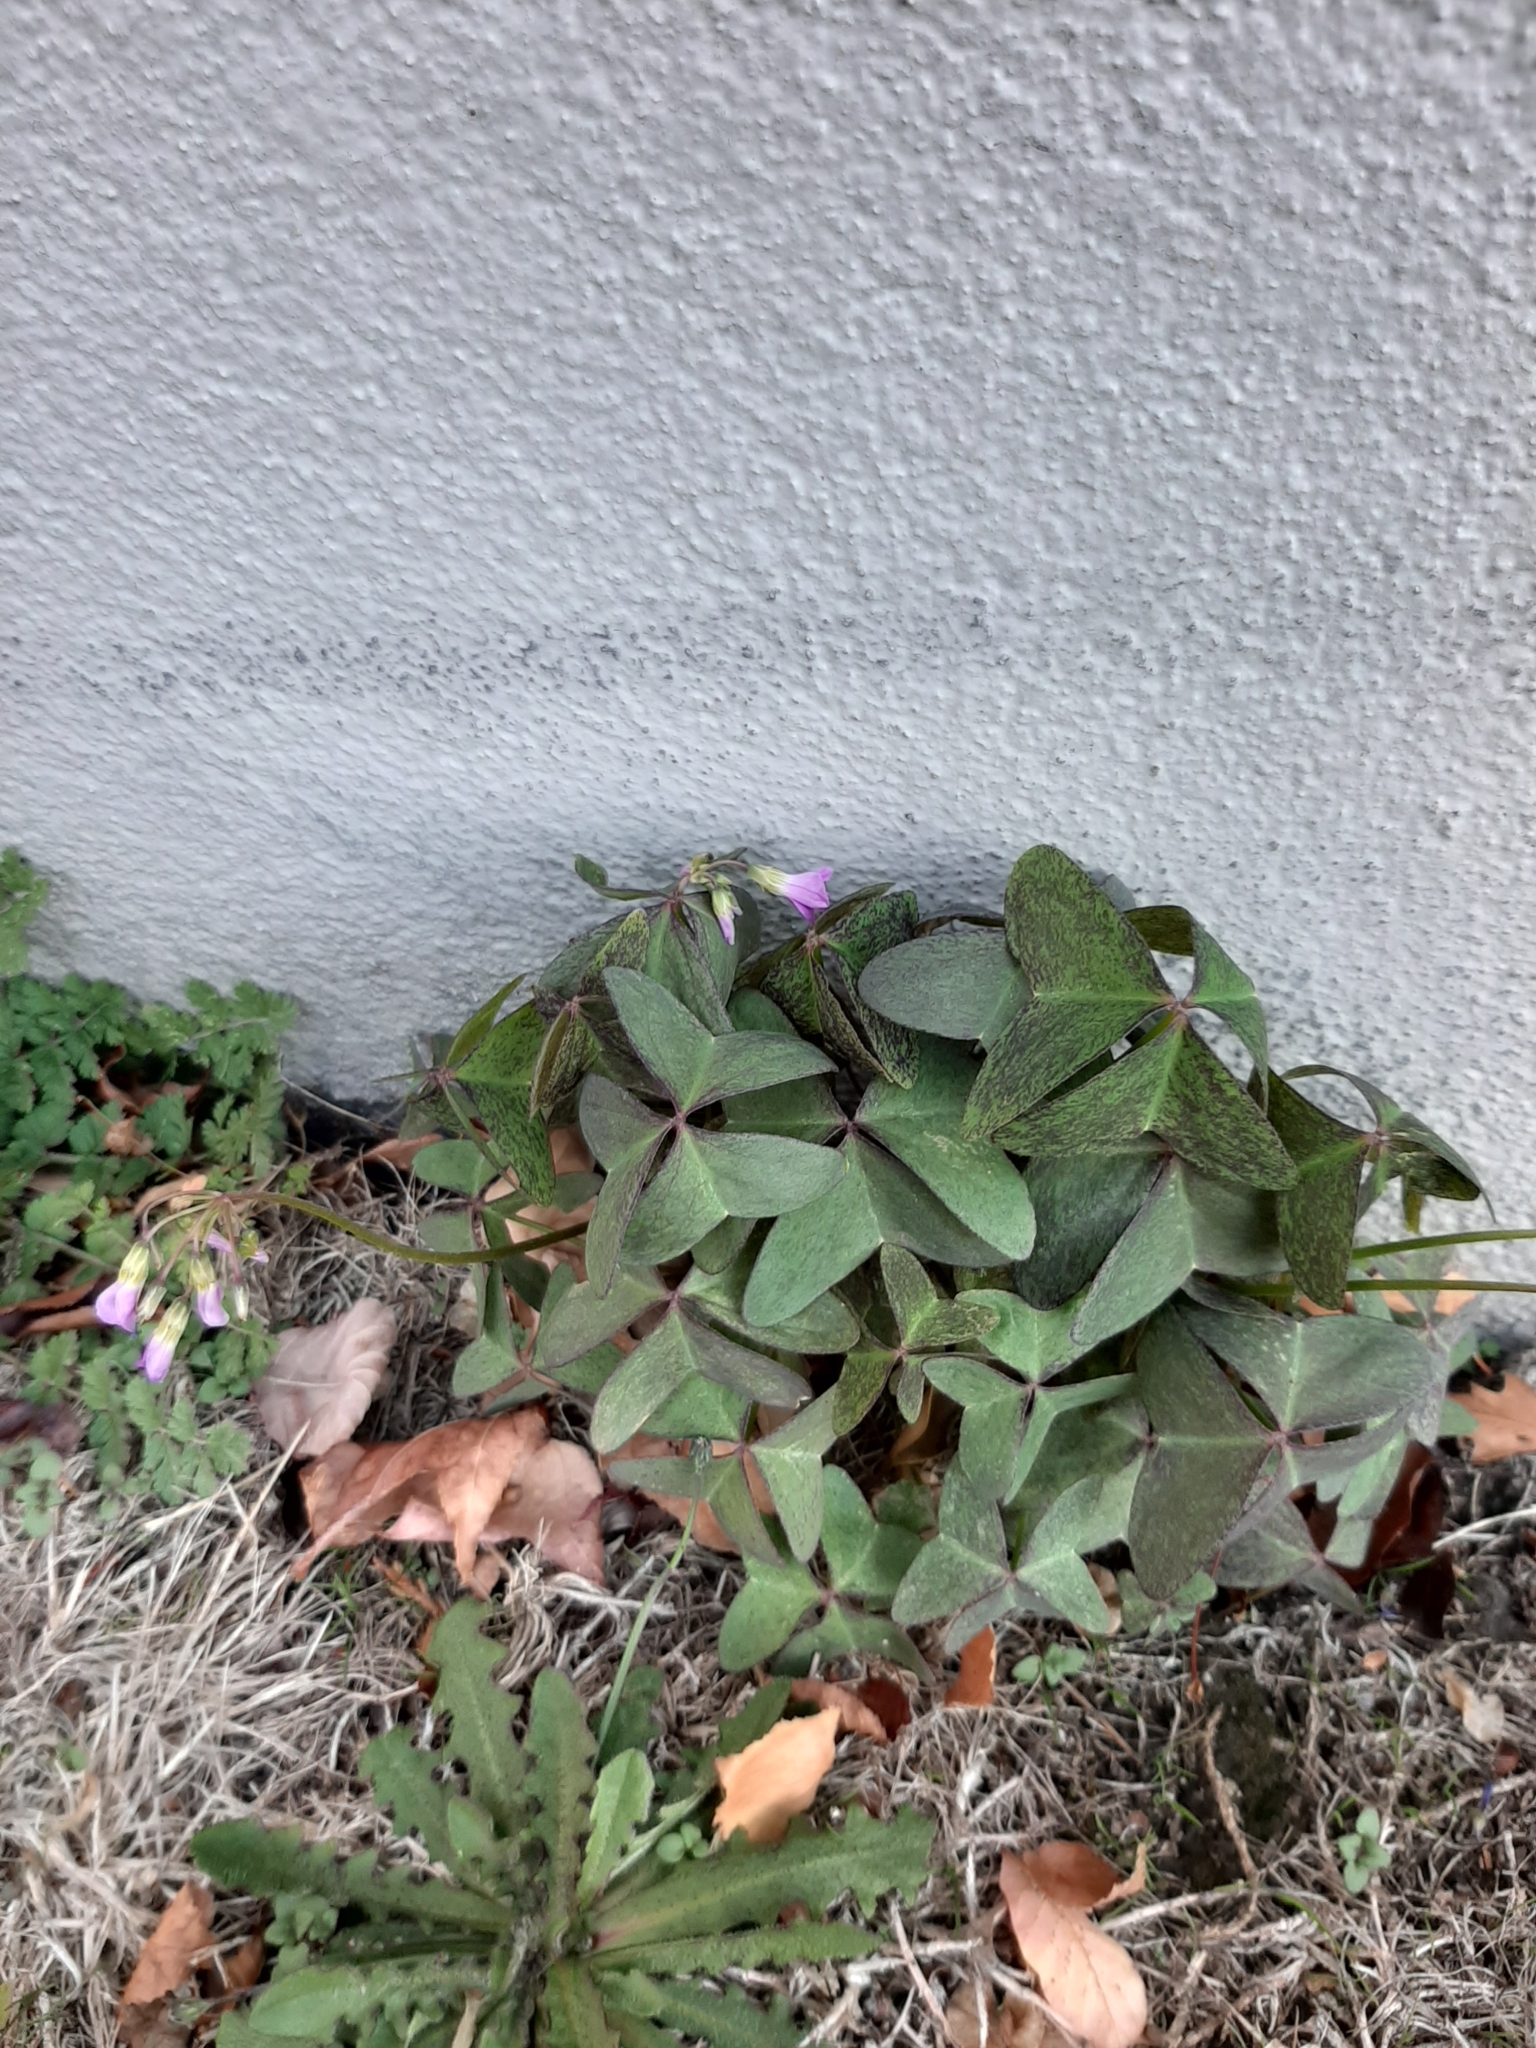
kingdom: Plantae
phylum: Tracheophyta
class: Magnoliopsida
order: Oxalidales
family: Oxalidaceae
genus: Oxalis
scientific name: Oxalis latifolia
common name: Garden pink-sorrel
